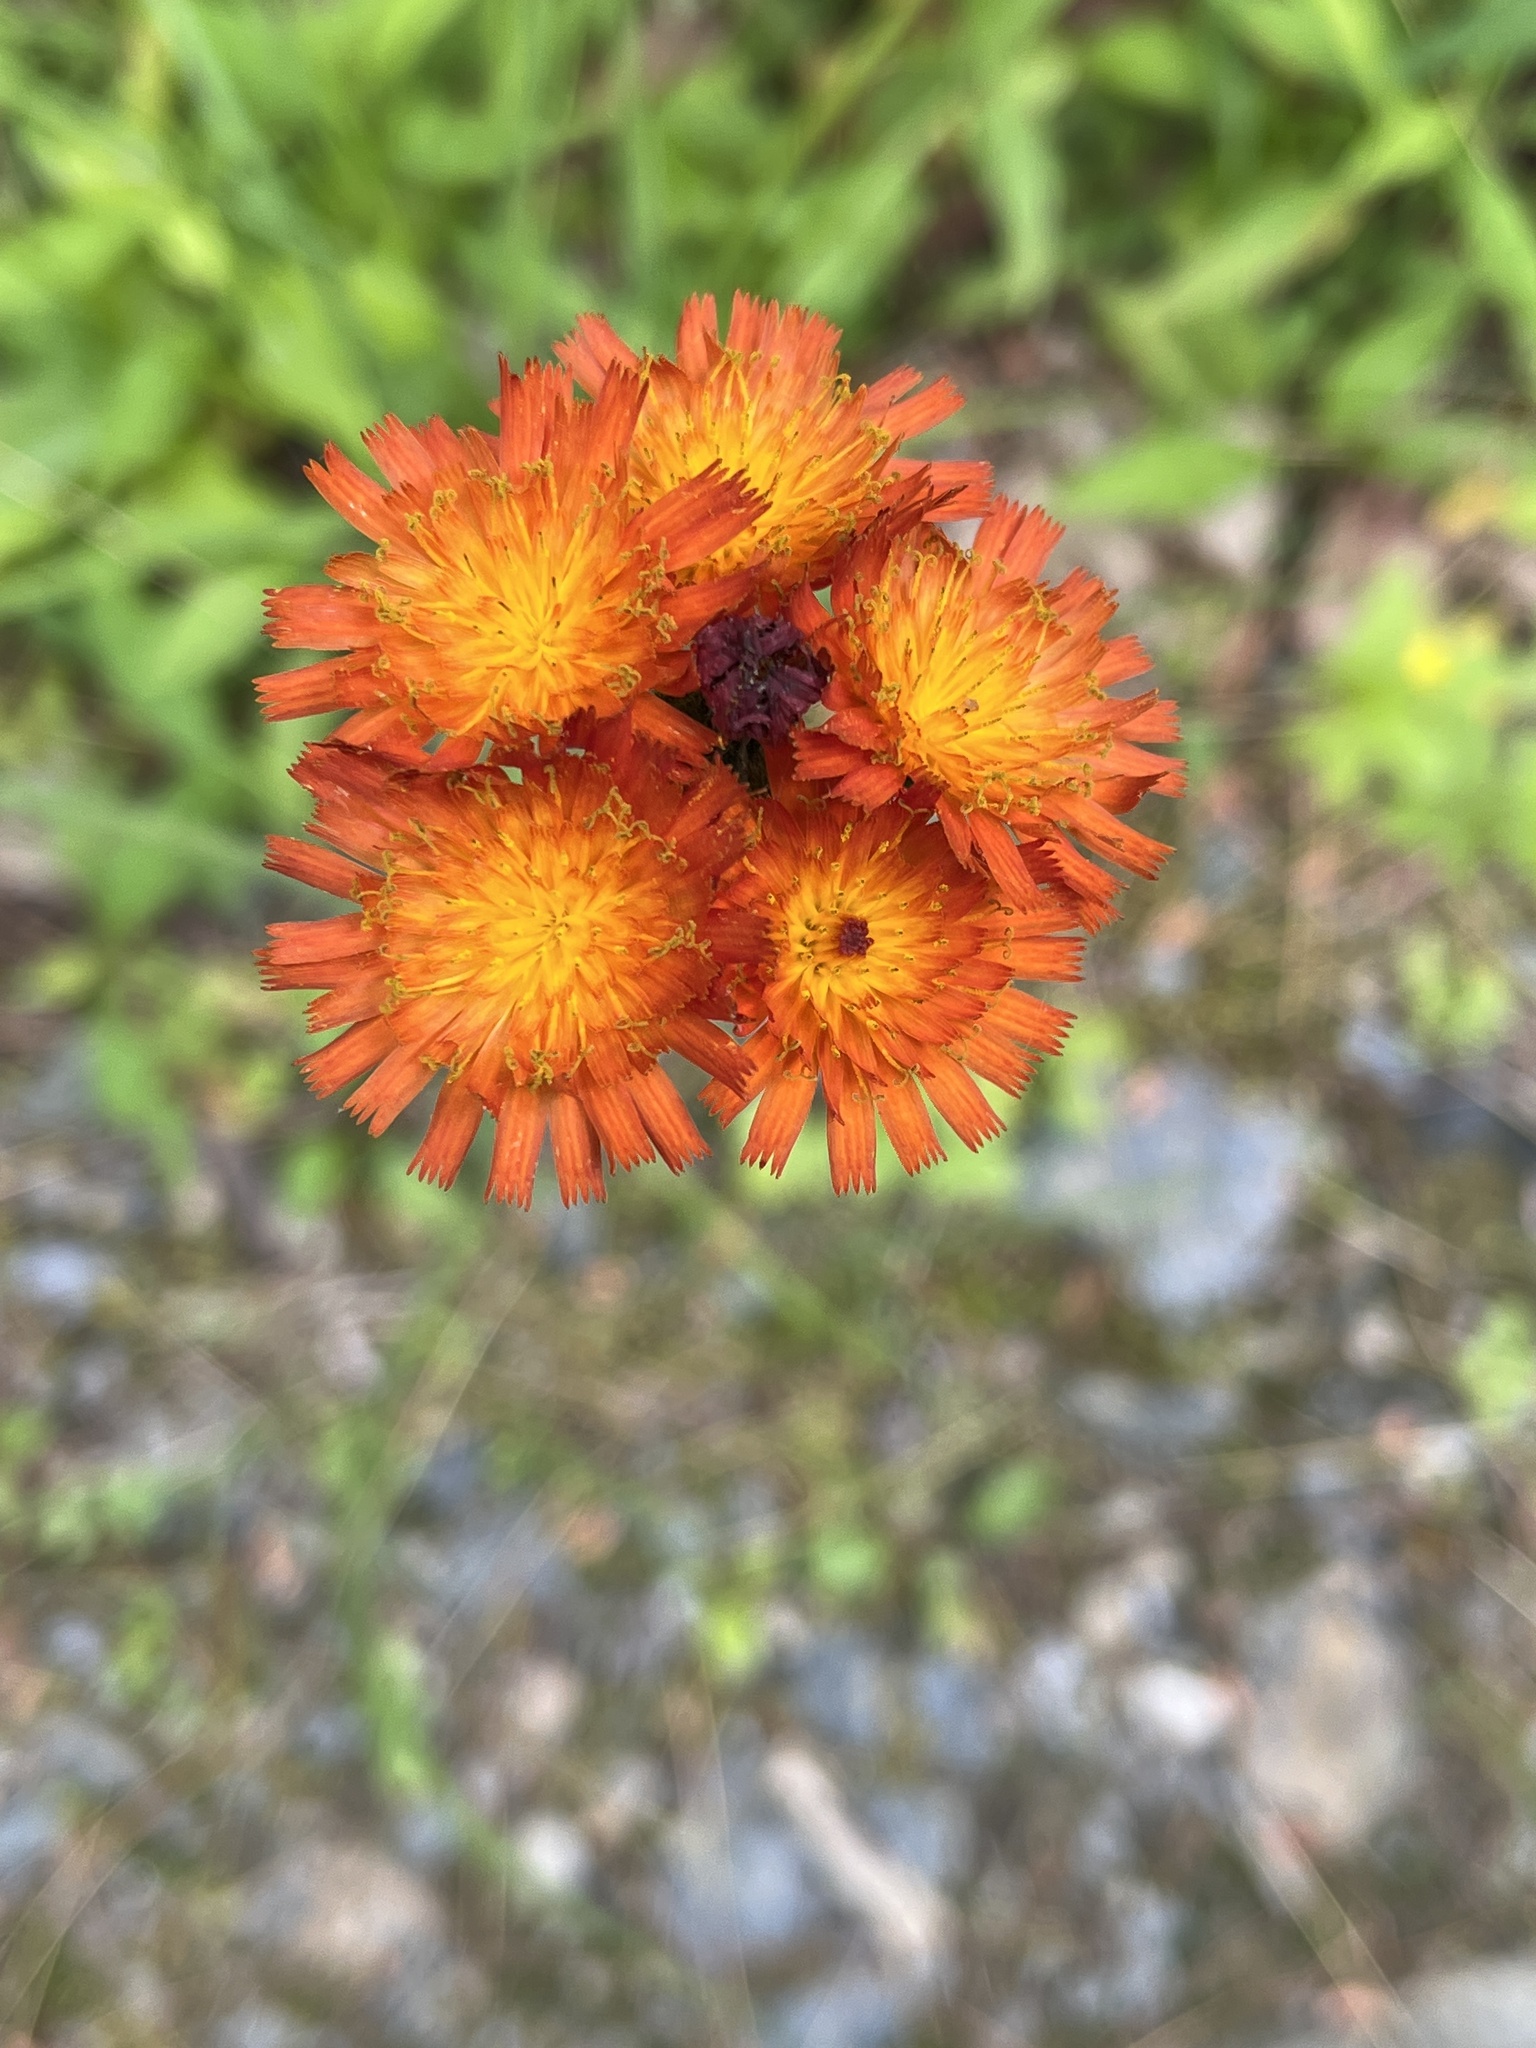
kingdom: Plantae
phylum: Tracheophyta
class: Magnoliopsida
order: Asterales
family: Asteraceae
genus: Pilosella
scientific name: Pilosella aurantiaca
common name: Fox-and-cubs
